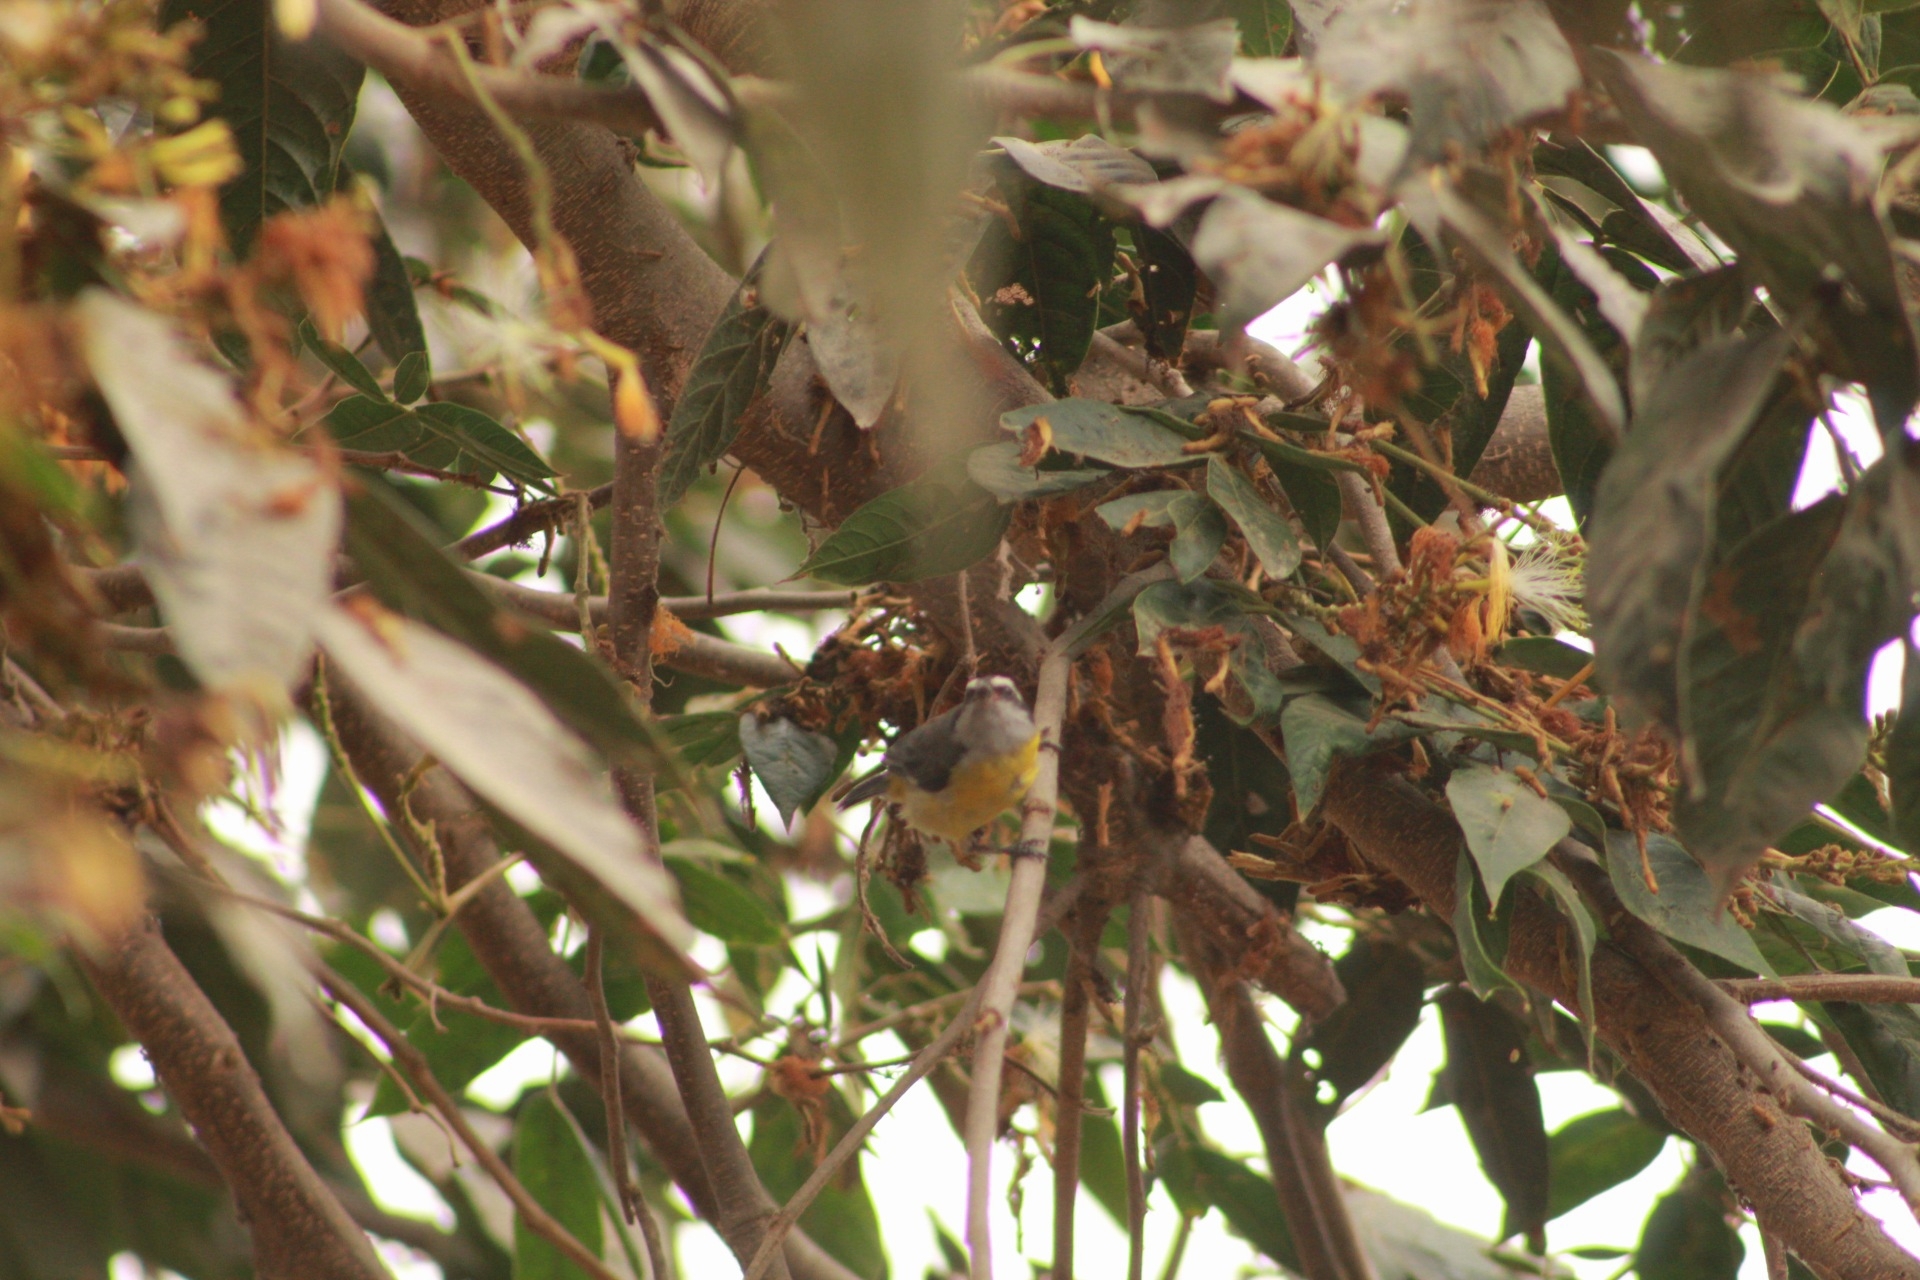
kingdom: Animalia
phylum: Chordata
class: Aves
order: Passeriformes
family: Thraupidae
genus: Coereba
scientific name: Coereba flaveola
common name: Bananaquit
